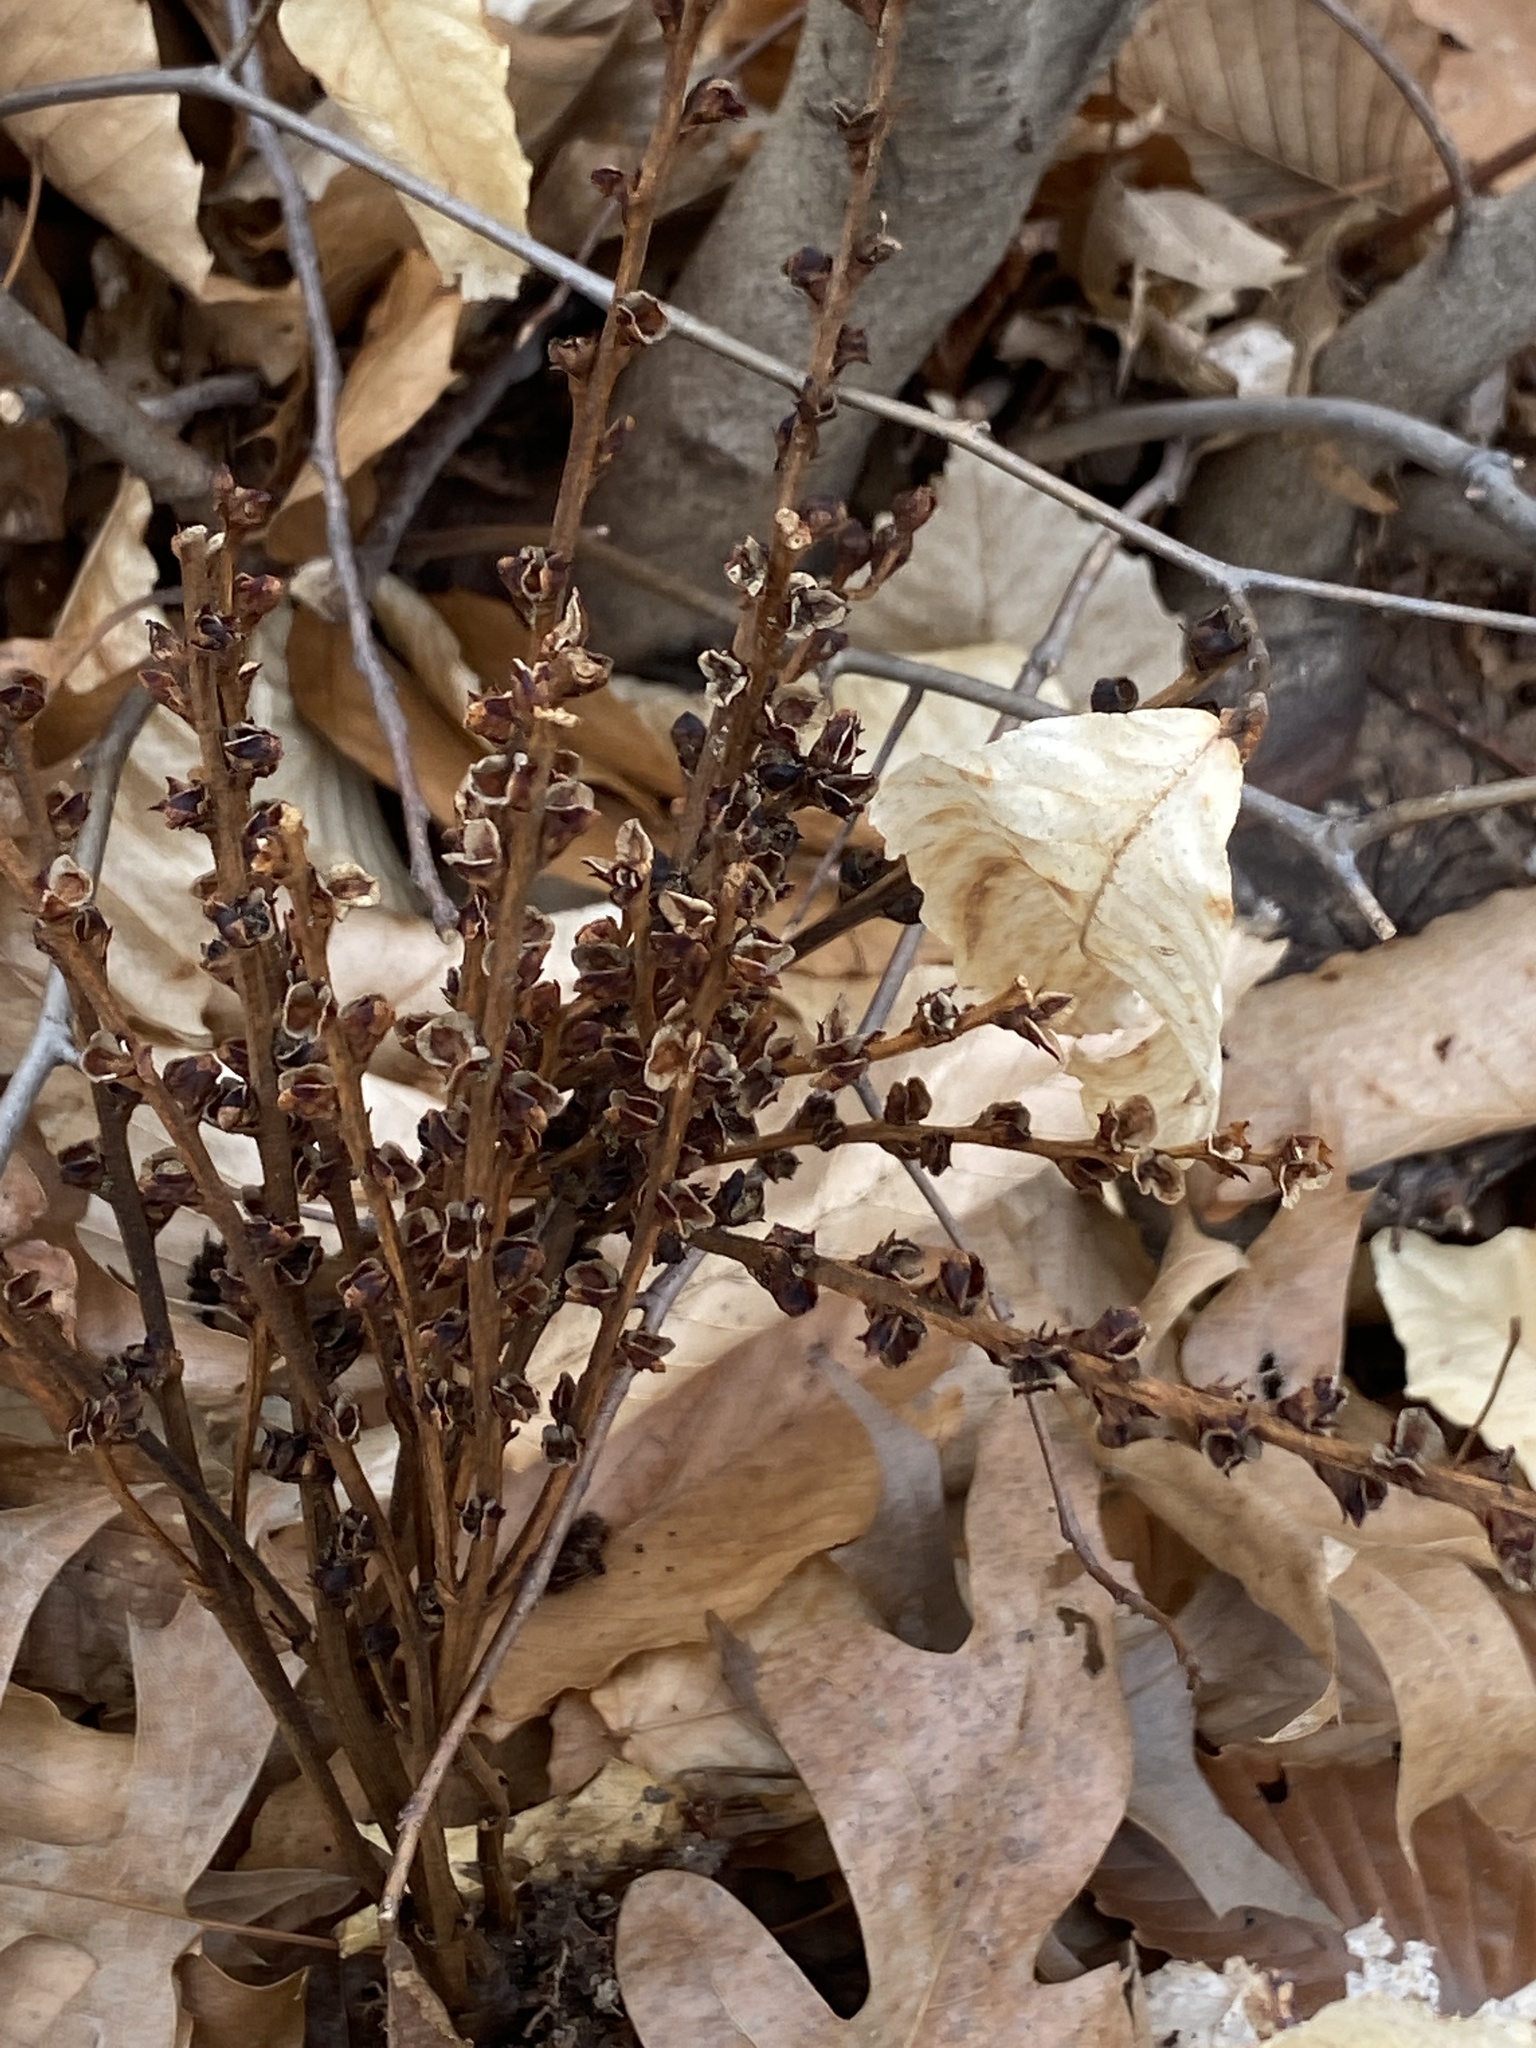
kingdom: Plantae
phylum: Tracheophyta
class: Magnoliopsida
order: Lamiales
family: Orobanchaceae
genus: Epifagus
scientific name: Epifagus virginiana
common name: Beechdrops
